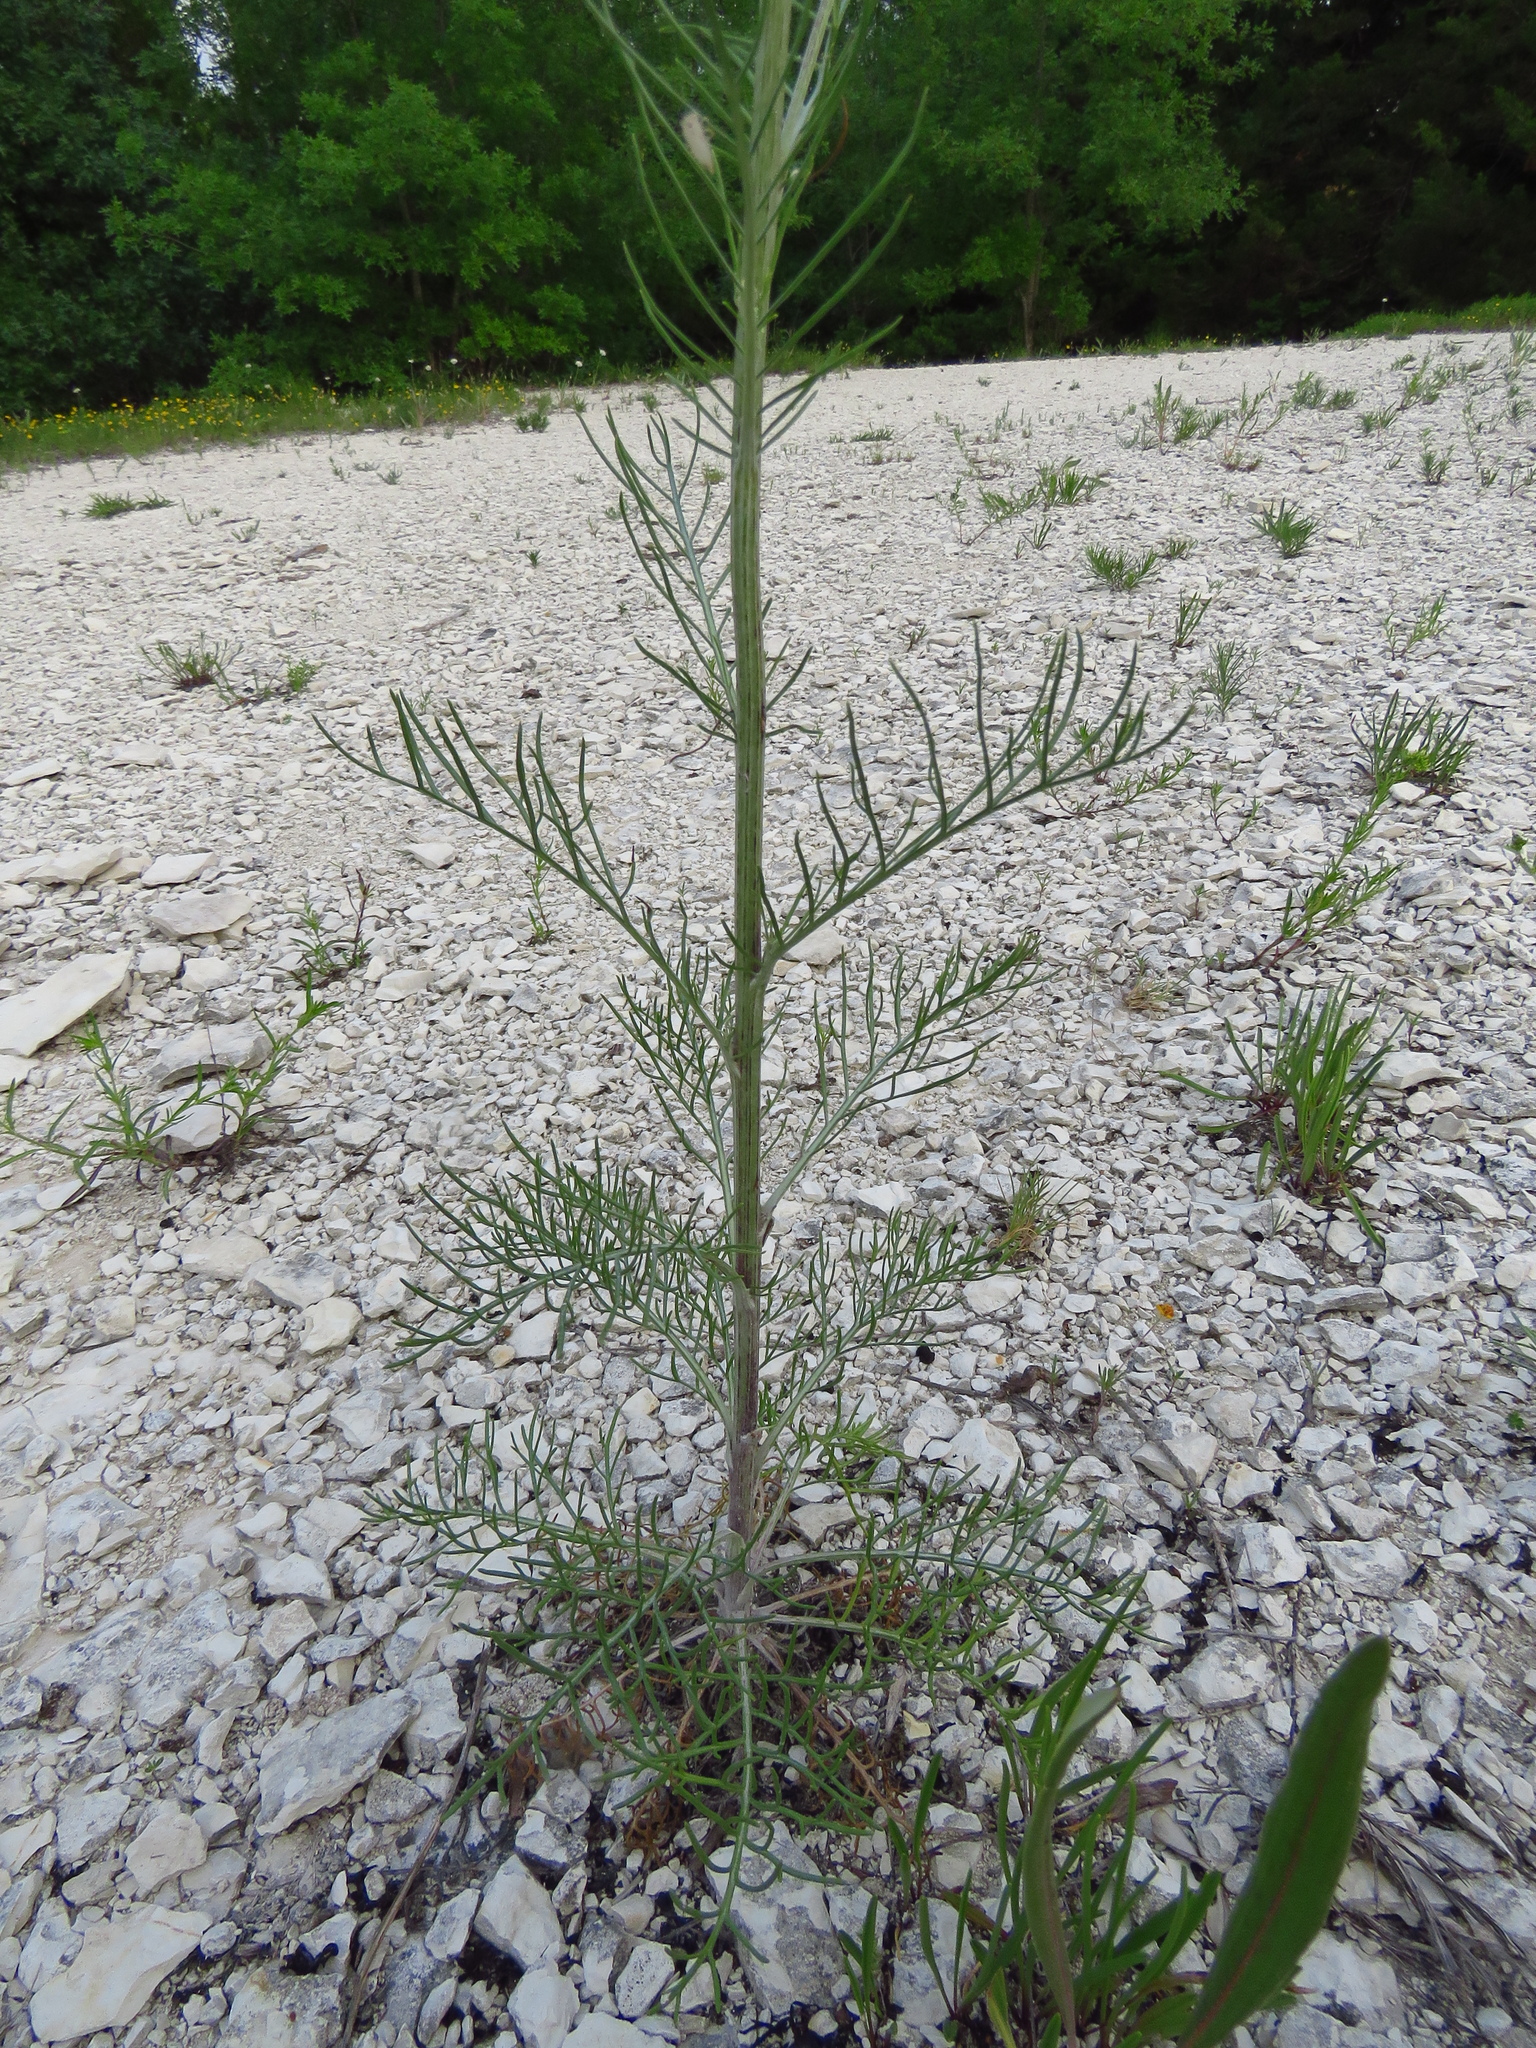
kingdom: Plantae
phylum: Tracheophyta
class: Magnoliopsida
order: Asterales
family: Asteraceae
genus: Hymenopappus
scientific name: Hymenopappus scabiosaeus
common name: Carolina woollywhite
